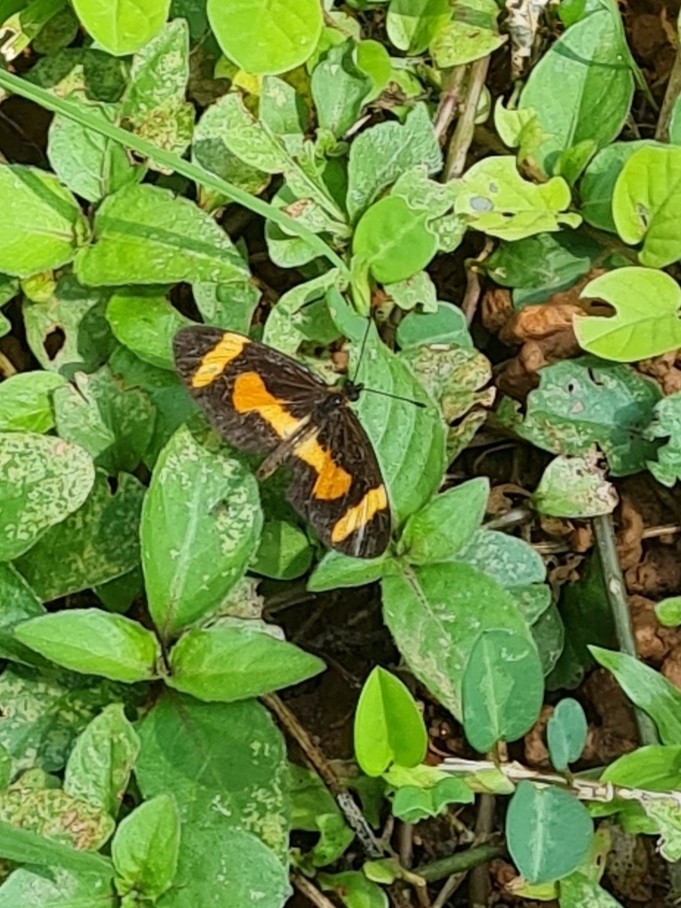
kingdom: Animalia
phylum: Arthropoda
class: Insecta
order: Lepidoptera
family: Nymphalidae
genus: Microtia
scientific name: Microtia elva
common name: Elf
